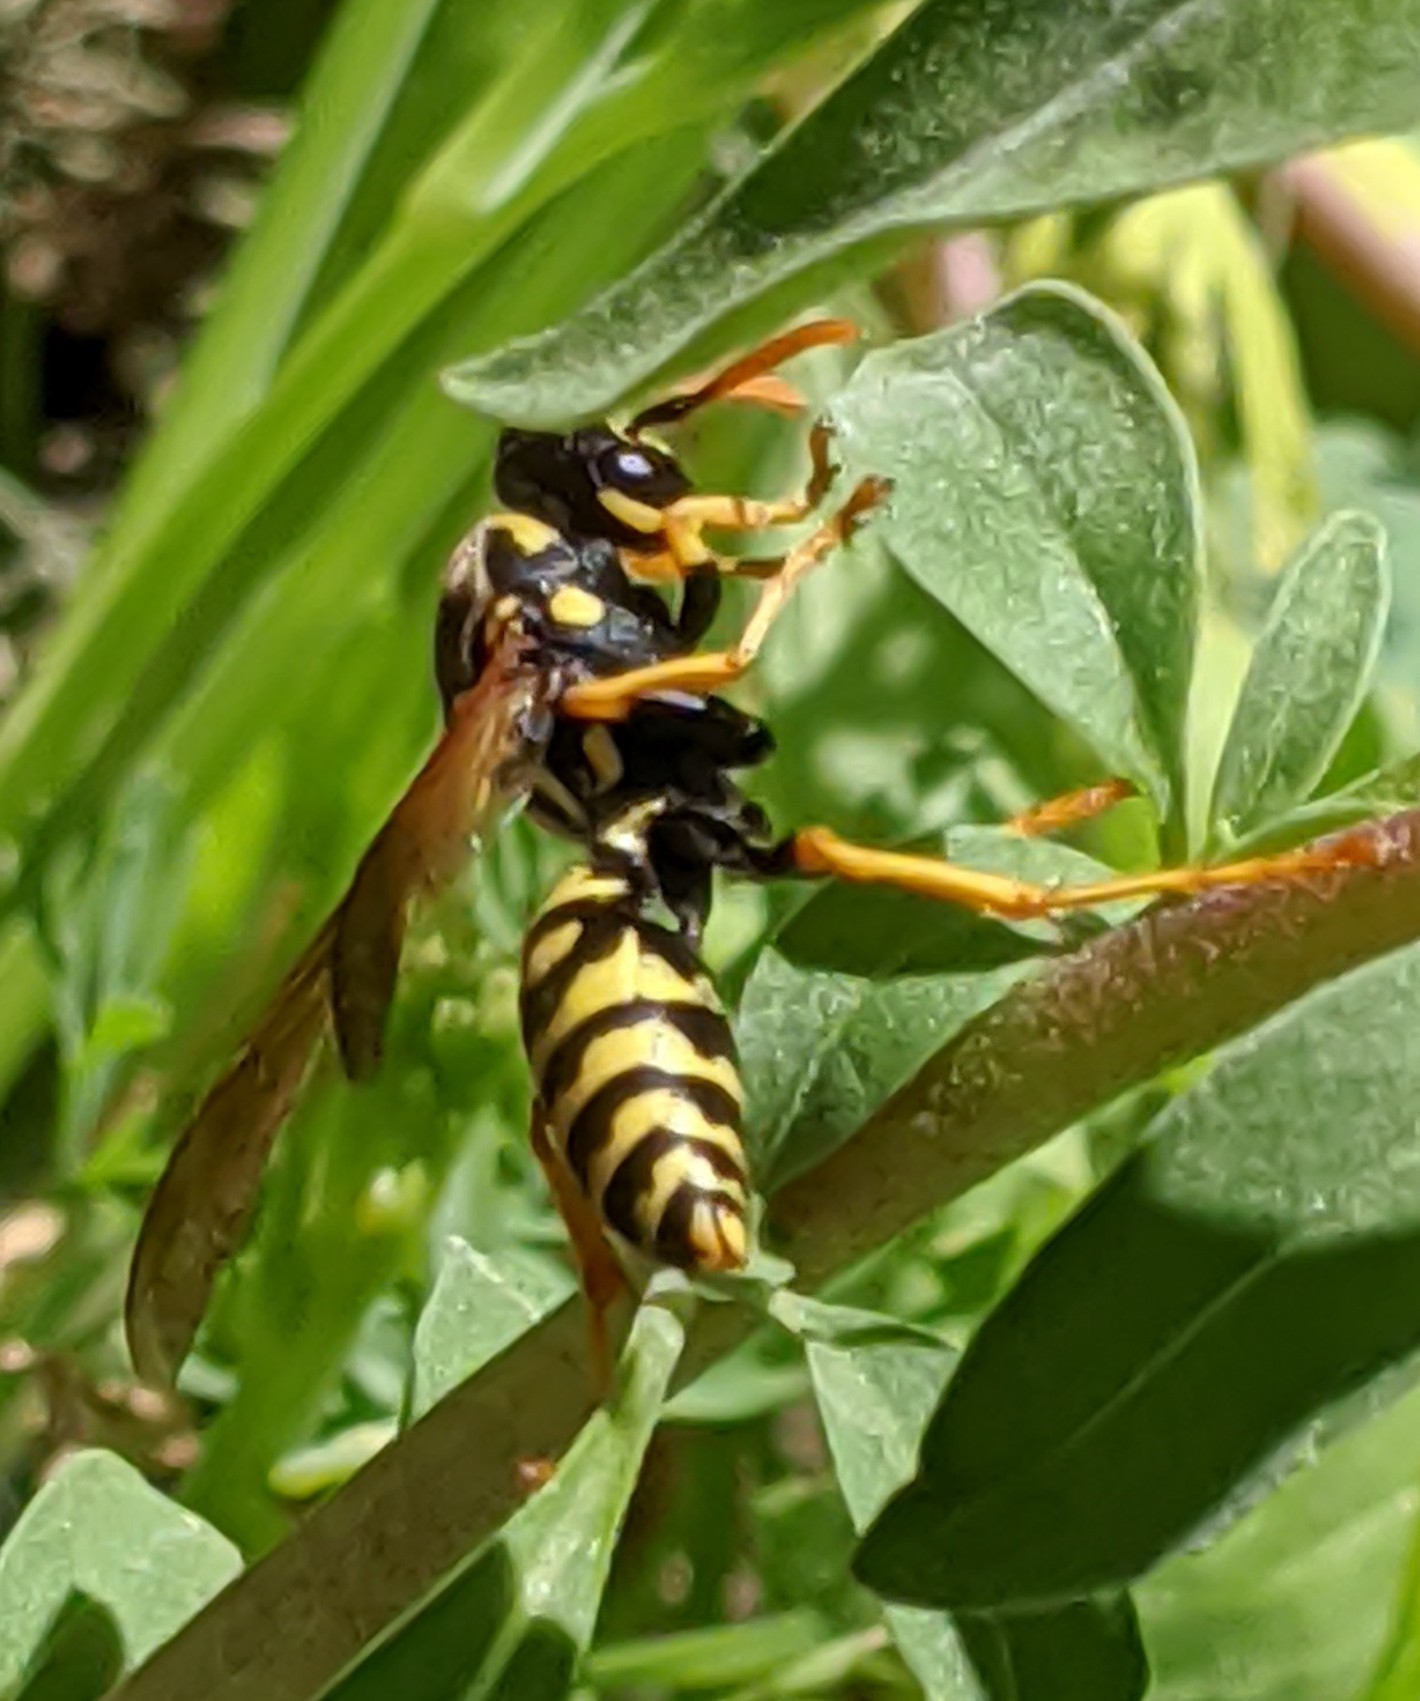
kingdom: Animalia
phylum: Arthropoda
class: Insecta
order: Hymenoptera
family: Eumenidae
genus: Polistes
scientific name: Polistes dominula
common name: Paper wasp
